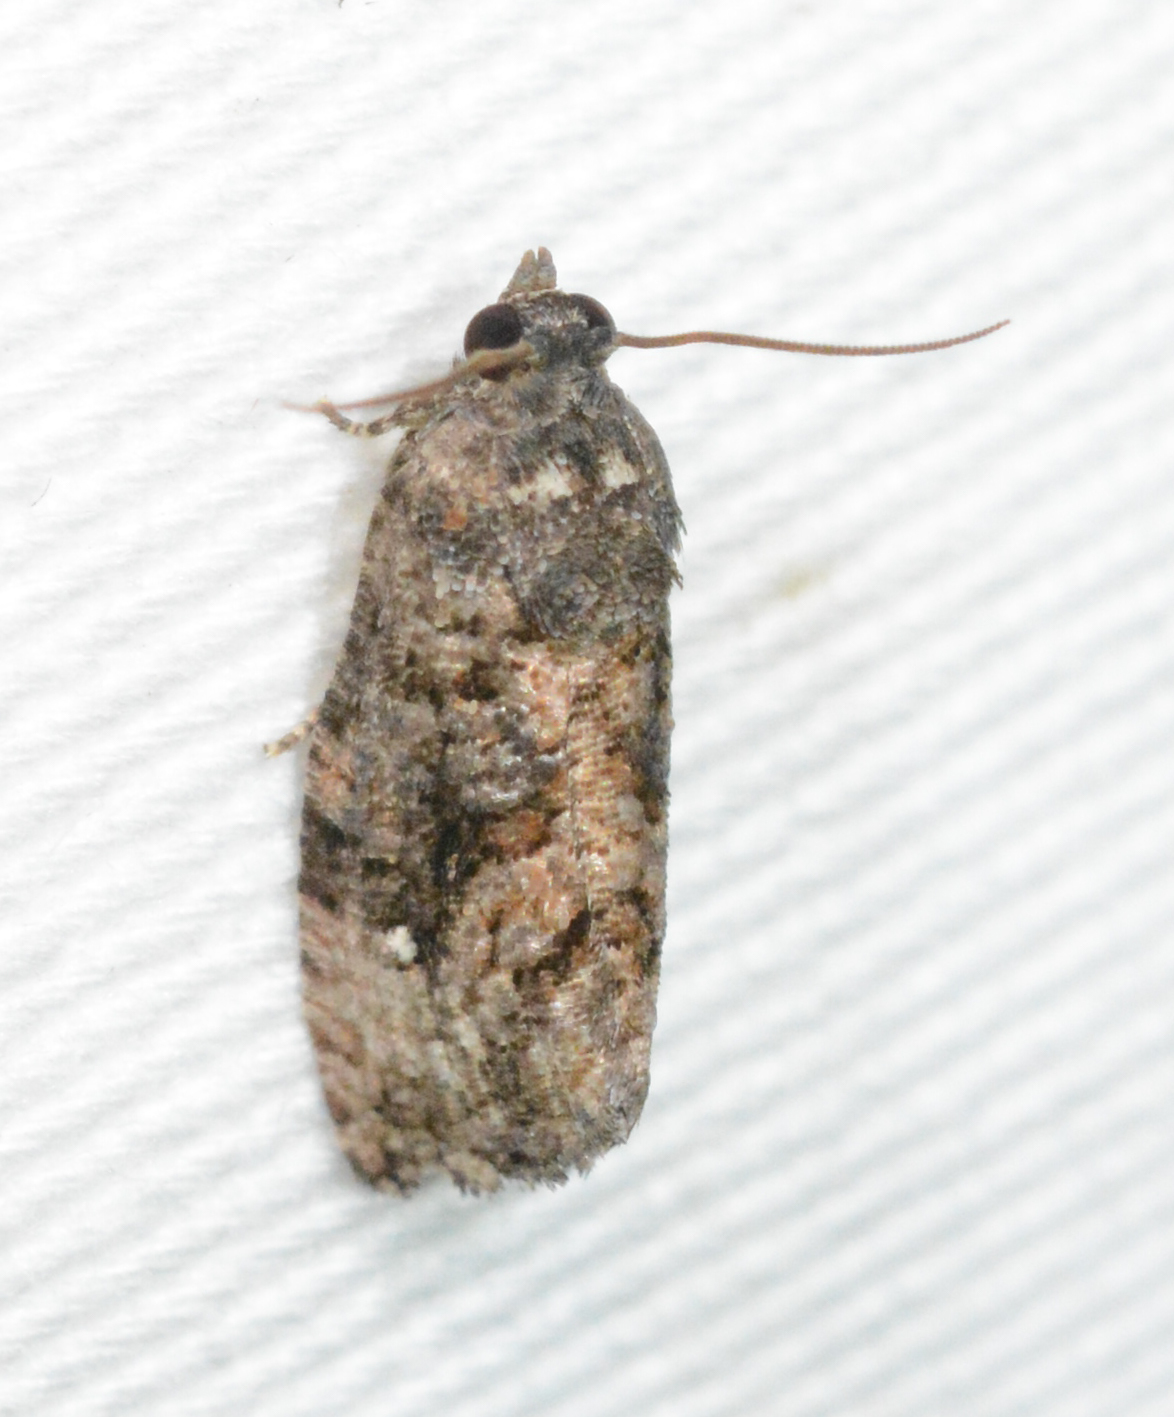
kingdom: Animalia
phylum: Arthropoda
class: Insecta
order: Lepidoptera
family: Tortricidae
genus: Gymnandrosoma
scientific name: Gymnandrosoma punctidiscanum
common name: Dotted ecdytolopha moth
